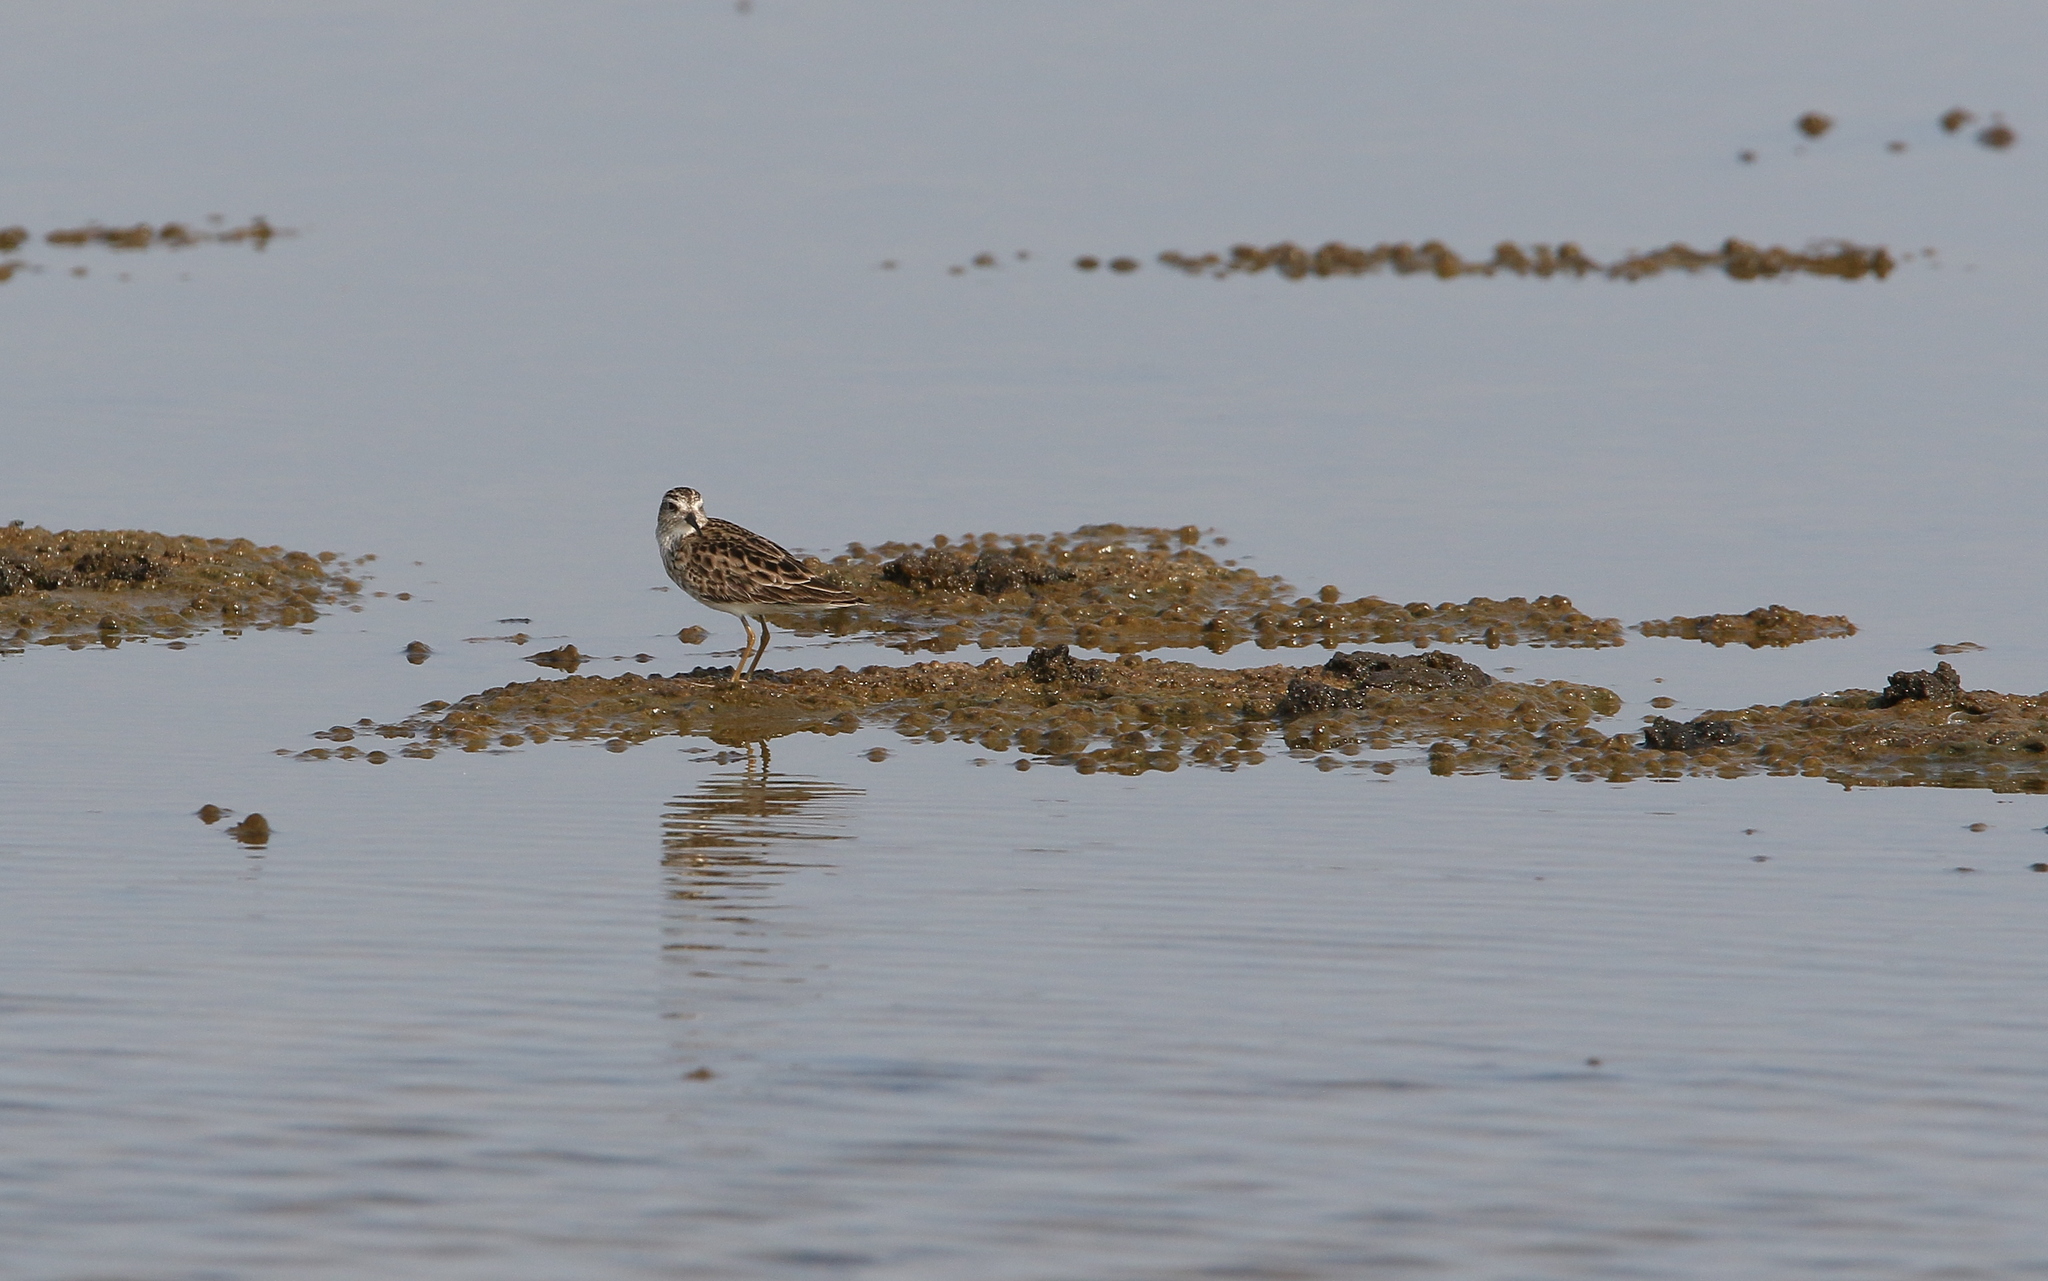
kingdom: Animalia
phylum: Chordata
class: Aves
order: Charadriiformes
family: Scolopacidae
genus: Calidris
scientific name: Calidris subminuta
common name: Long-toed stint
